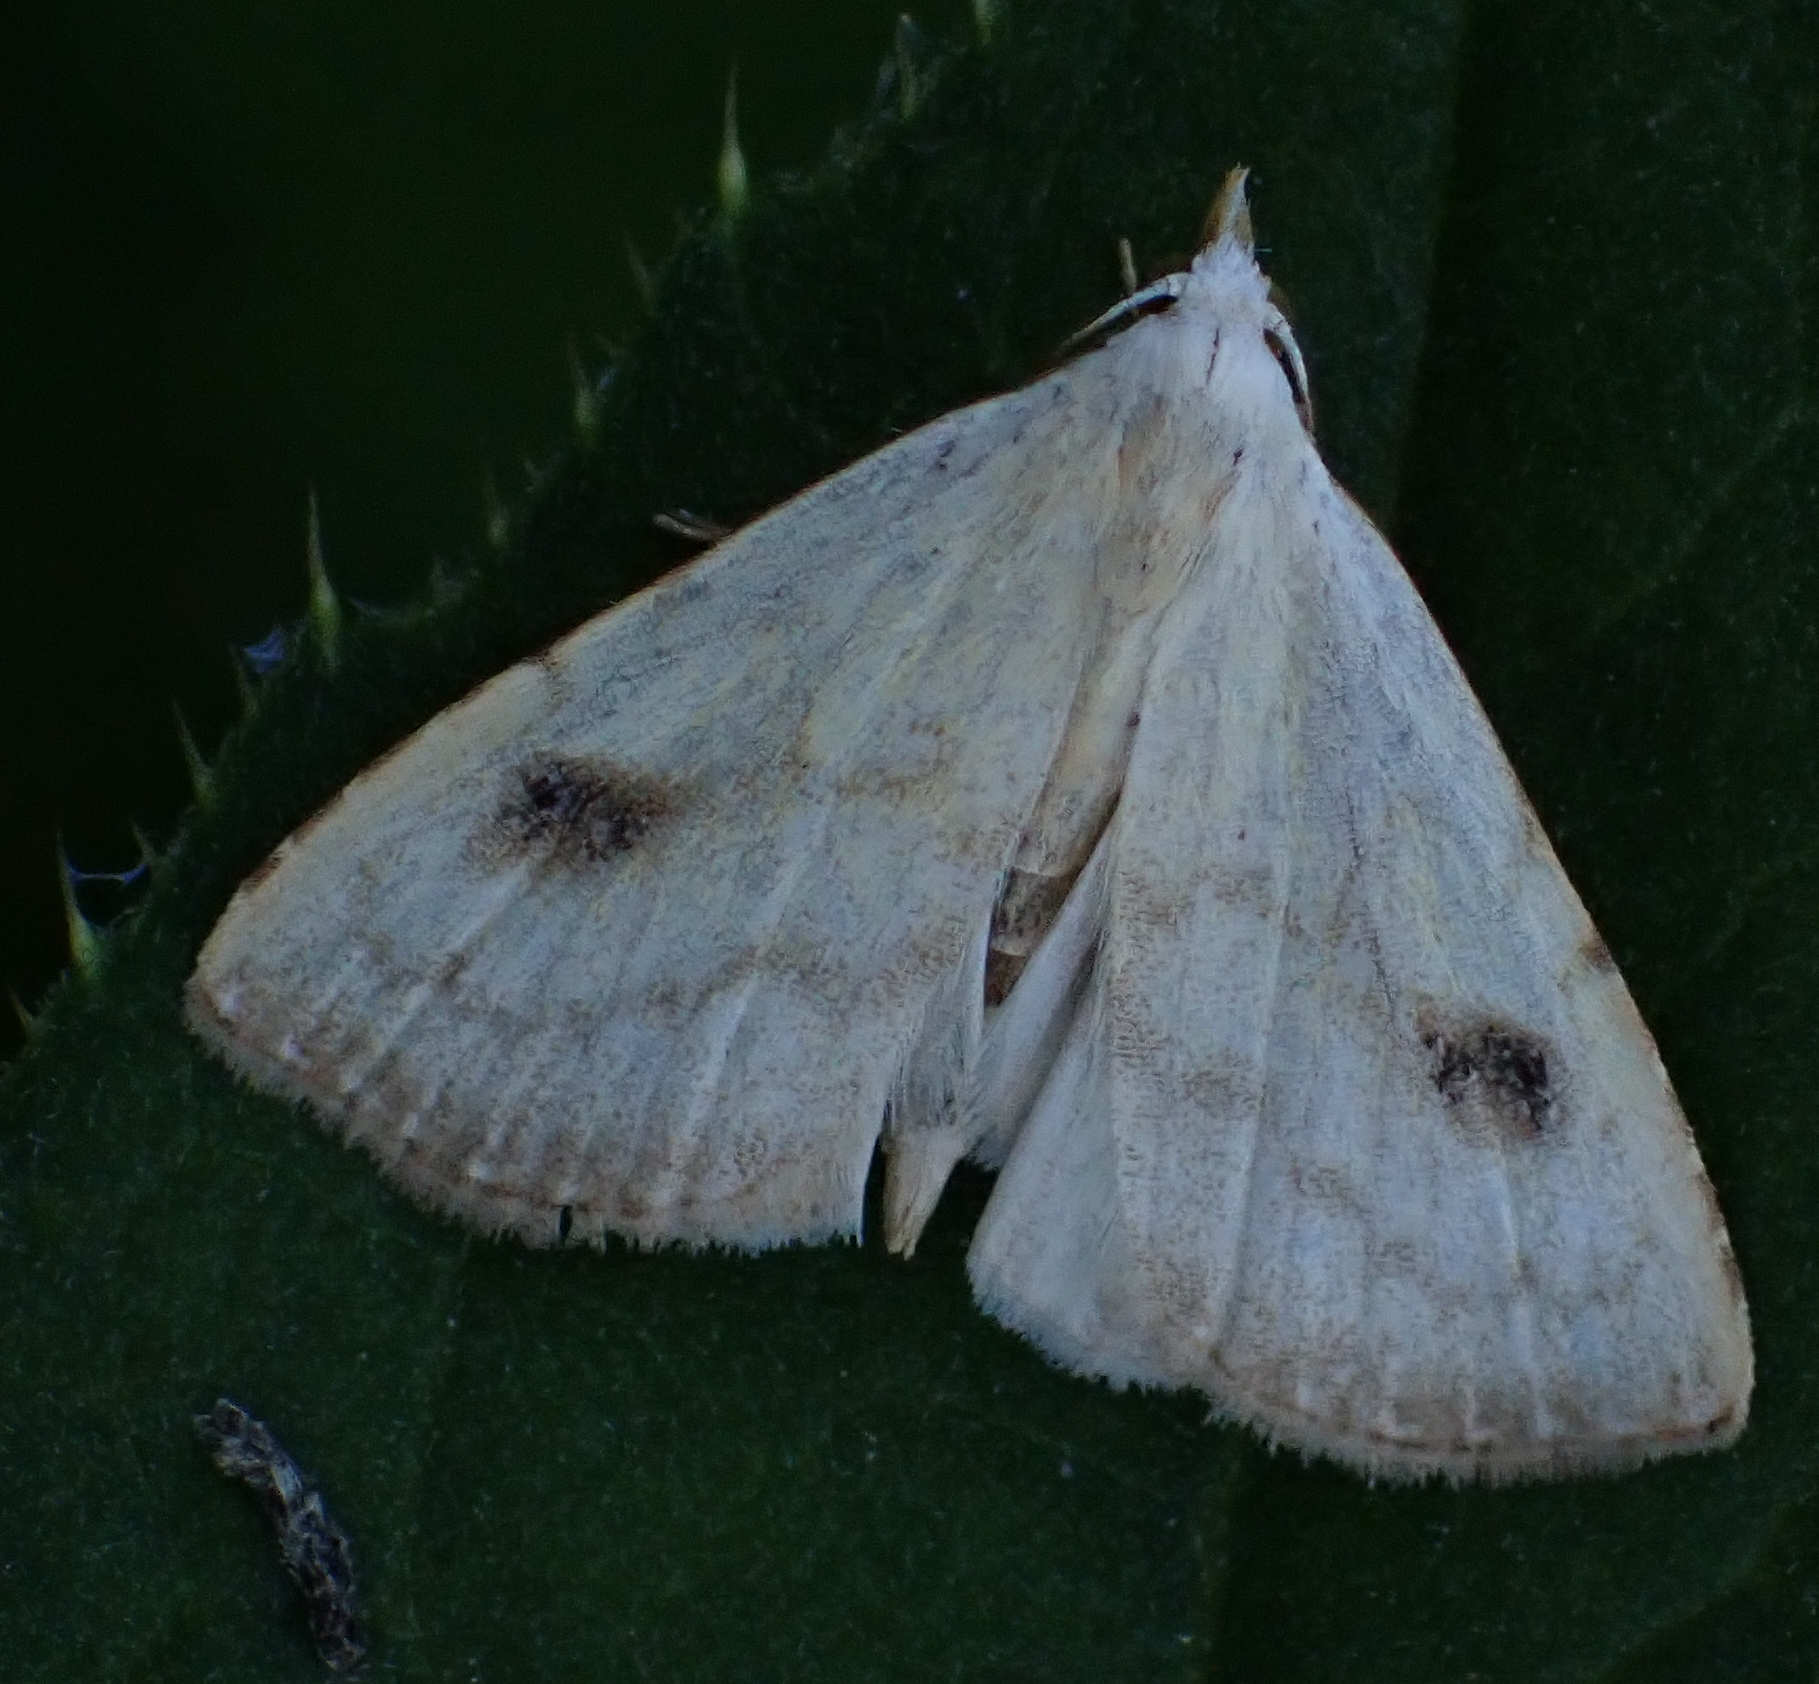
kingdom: Animalia
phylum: Arthropoda
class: Insecta
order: Lepidoptera
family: Erebidae
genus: Rivula
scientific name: Rivula sericealis
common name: Straw dot
